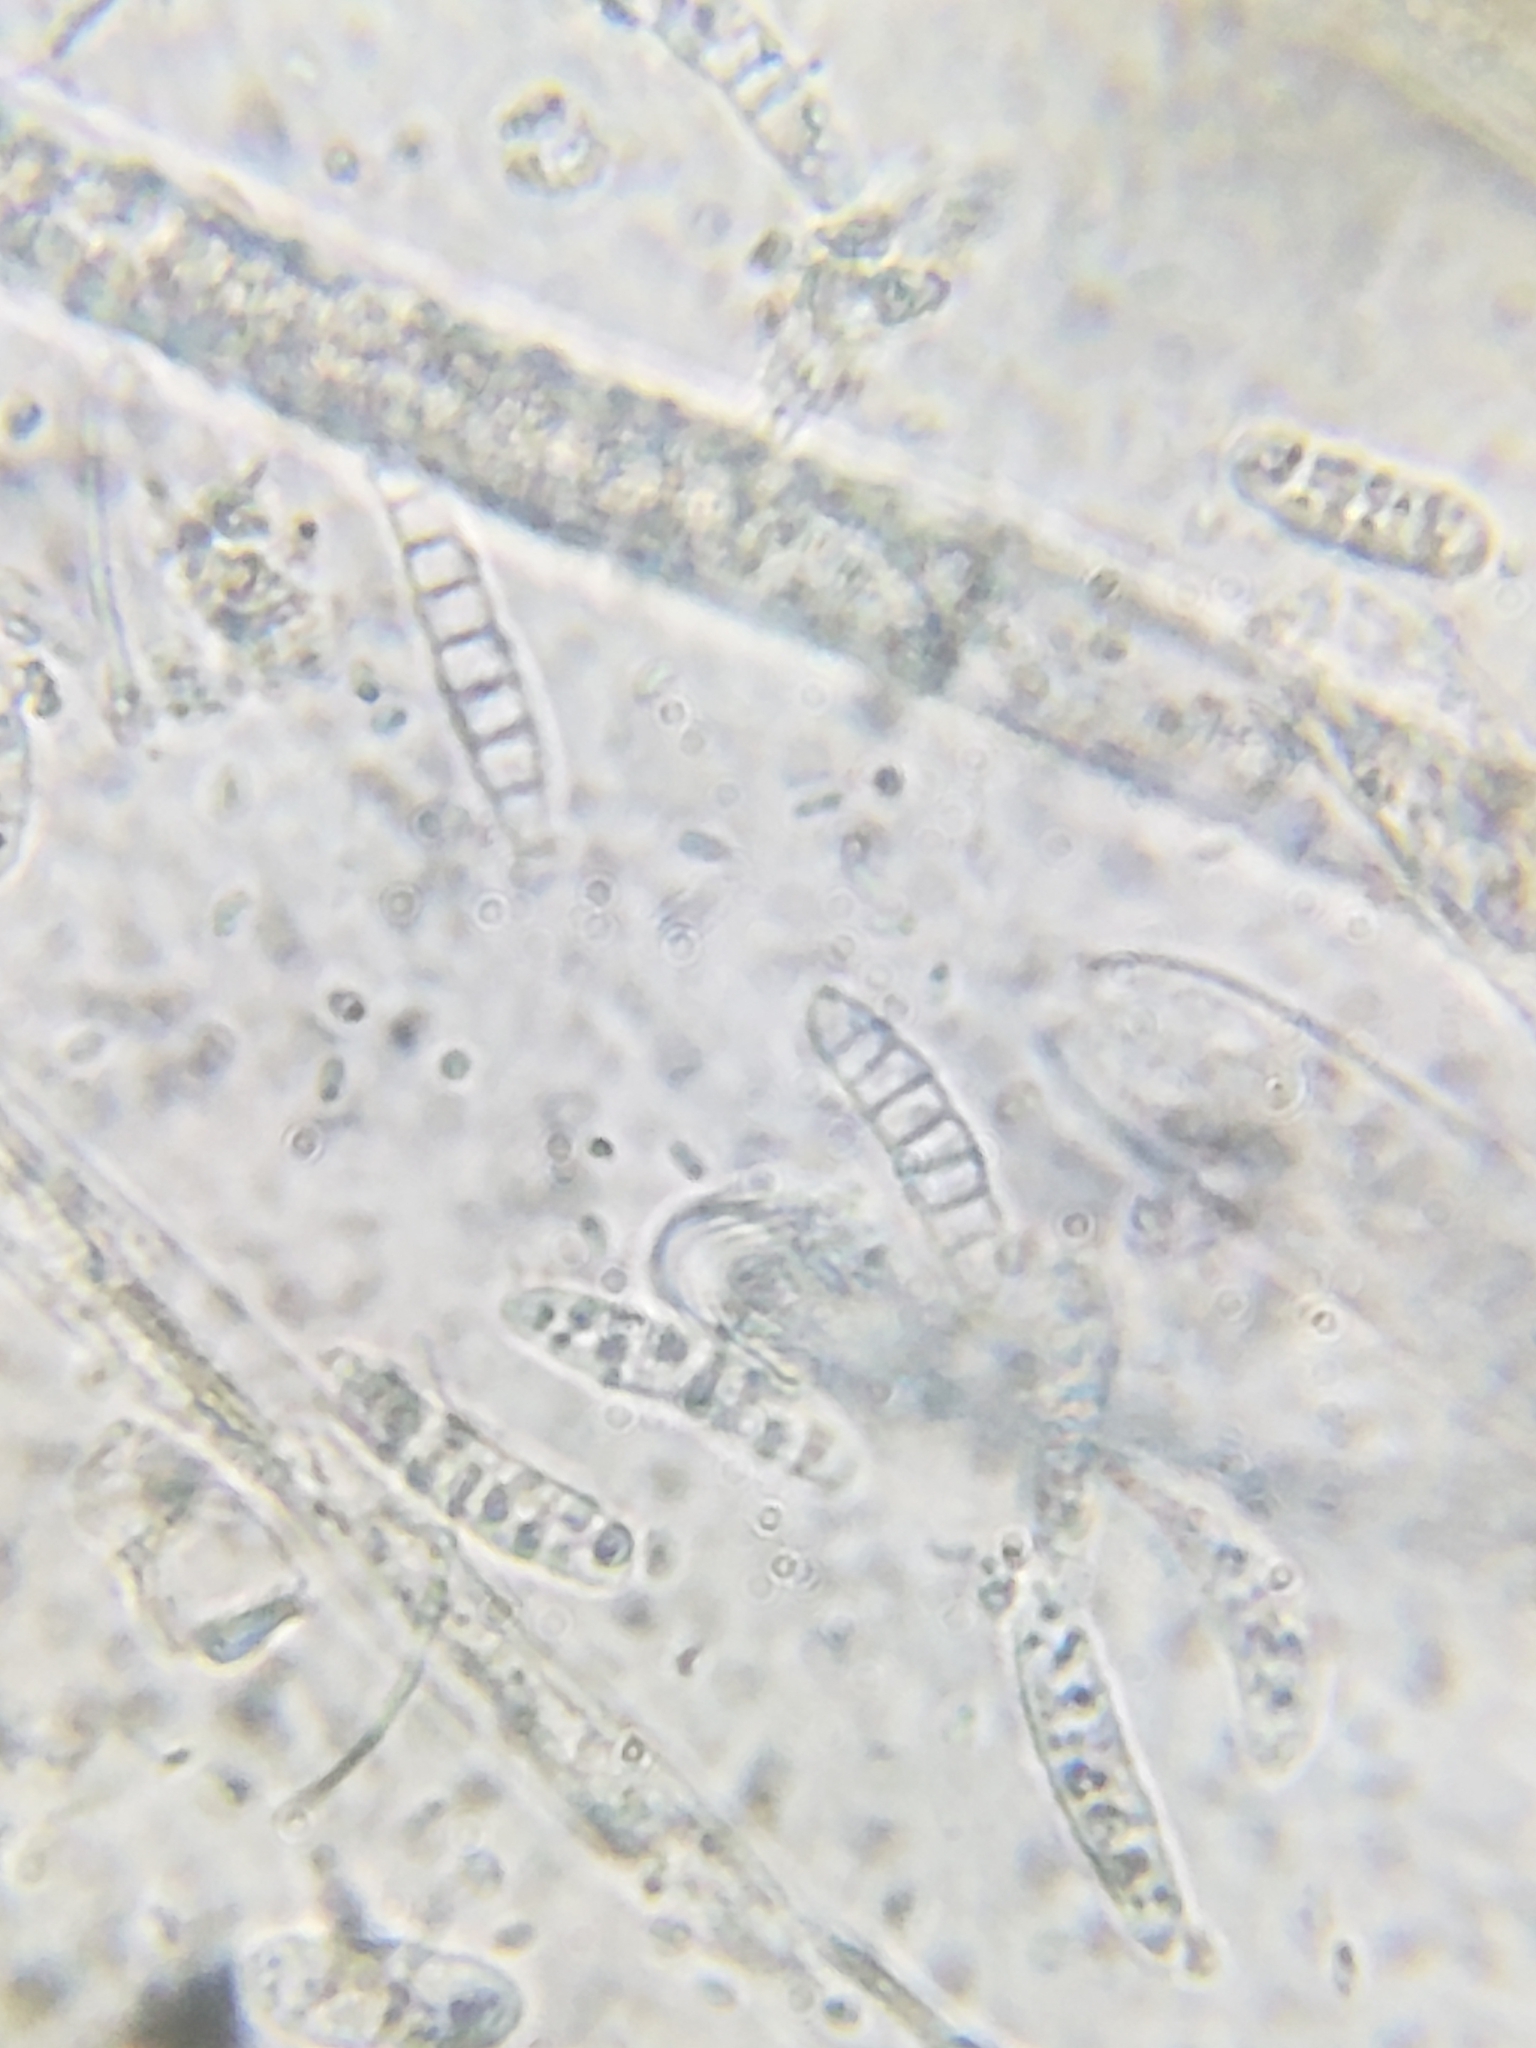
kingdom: Fungi
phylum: Ascomycota
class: Leotiomycetes
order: Leotiales
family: Tympanidaceae
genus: Claussenomyces
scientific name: Claussenomyces prasinulus
